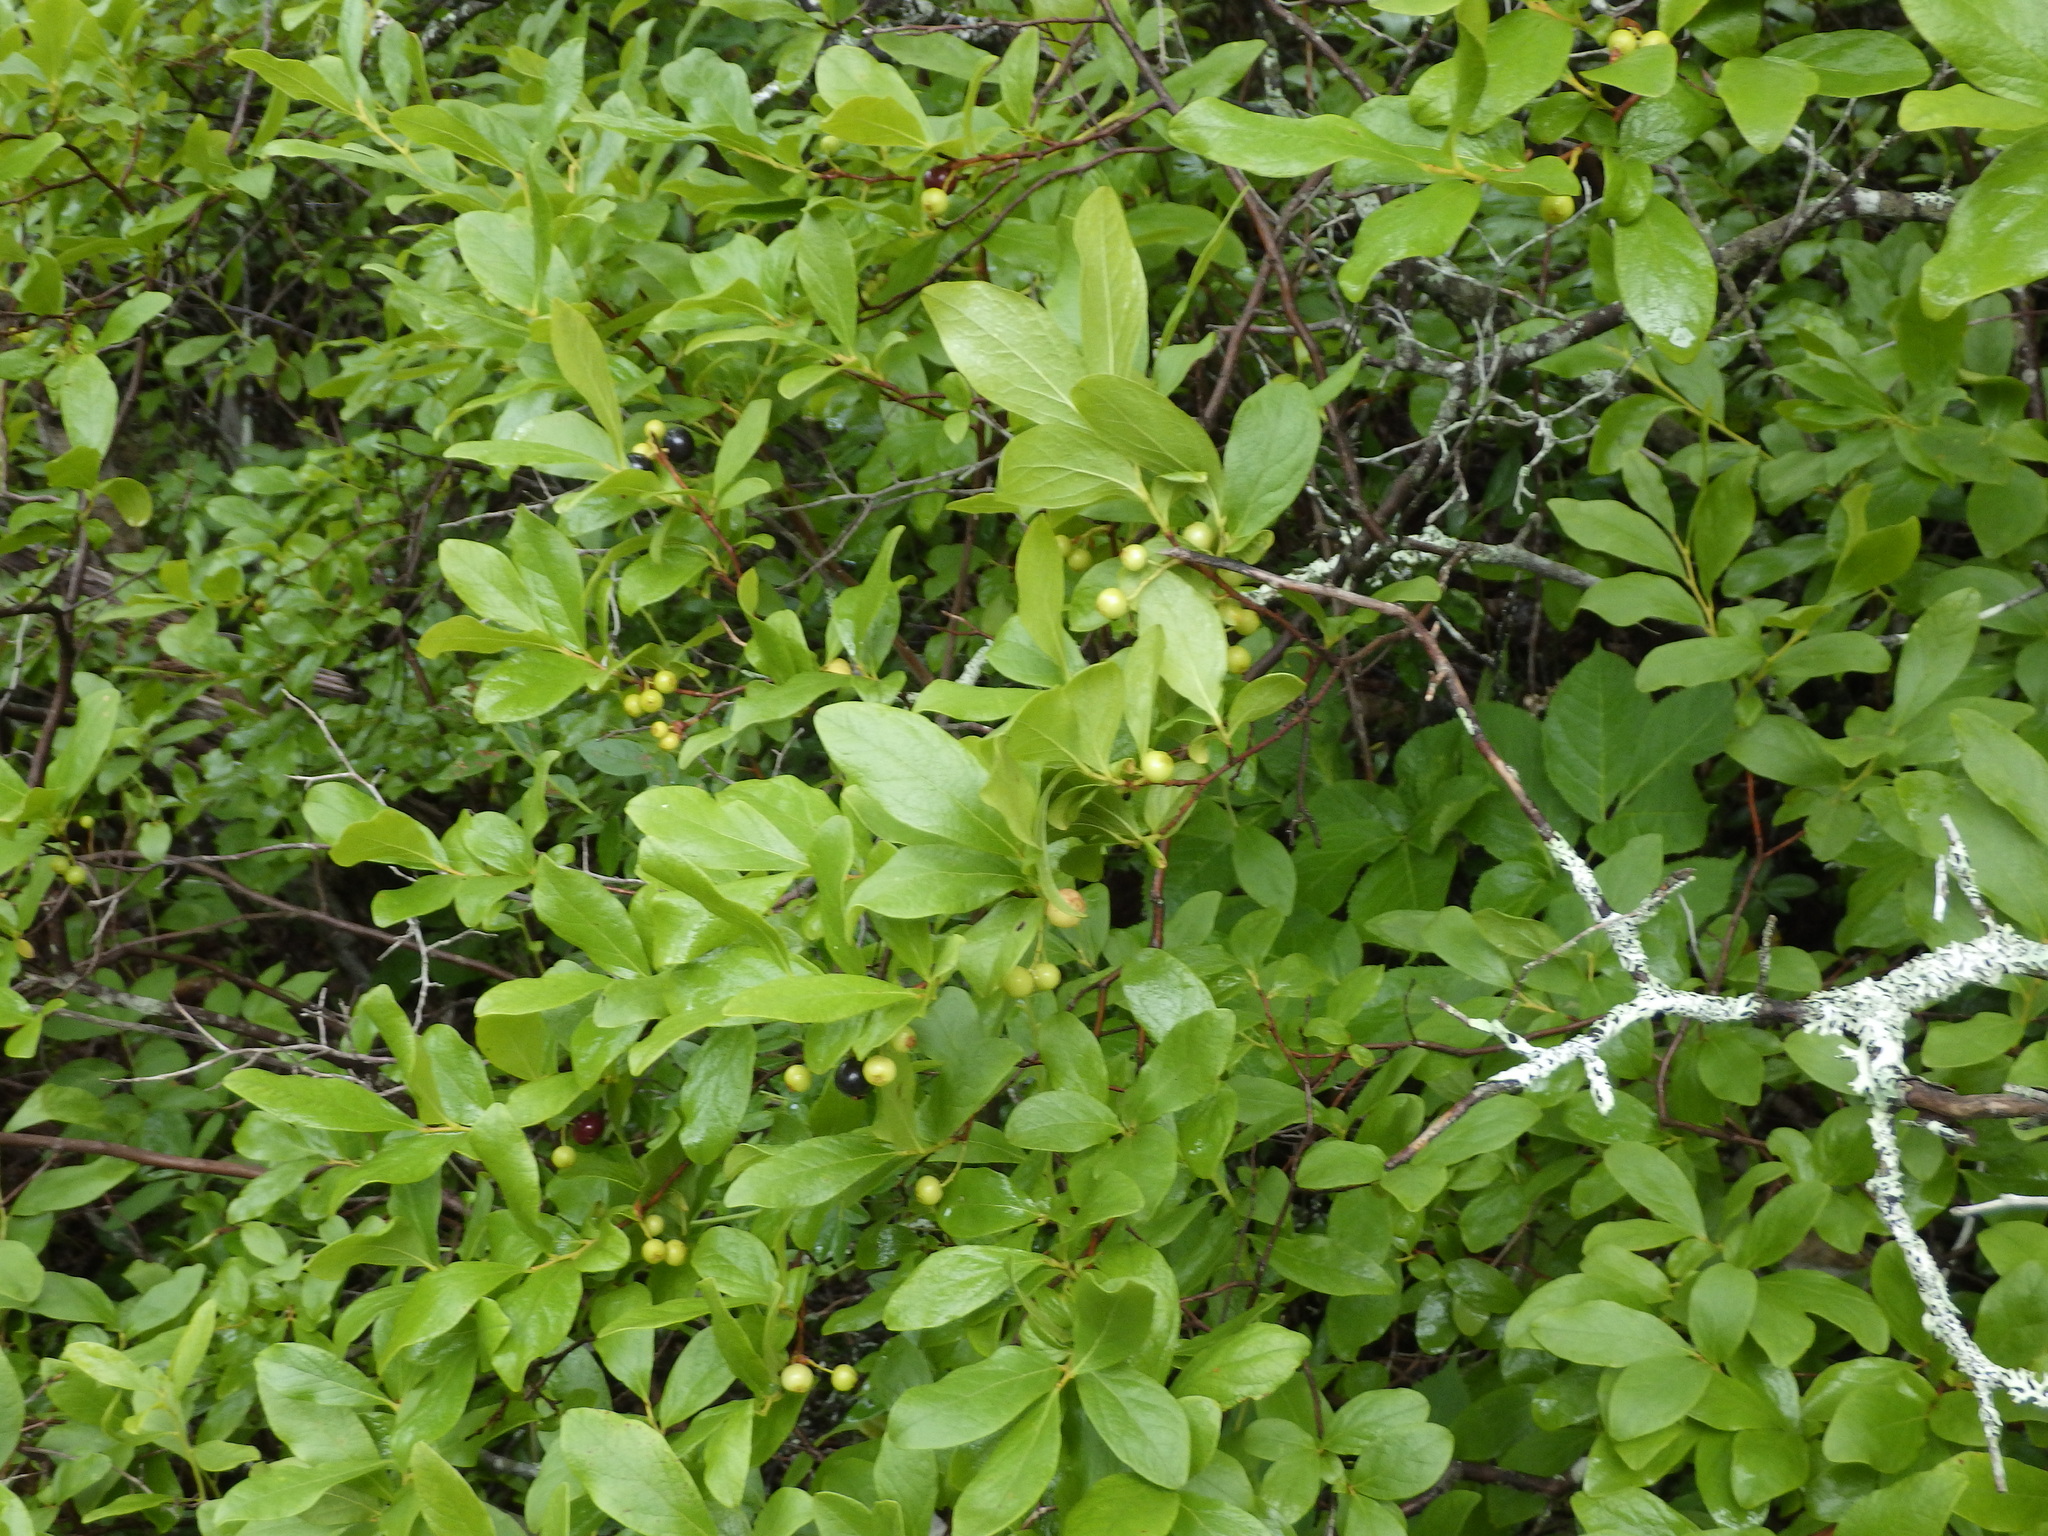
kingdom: Plantae
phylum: Tracheophyta
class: Magnoliopsida
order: Ericales
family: Ericaceae
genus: Gaylussacia
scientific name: Gaylussacia baccata
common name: Black huckleberry
